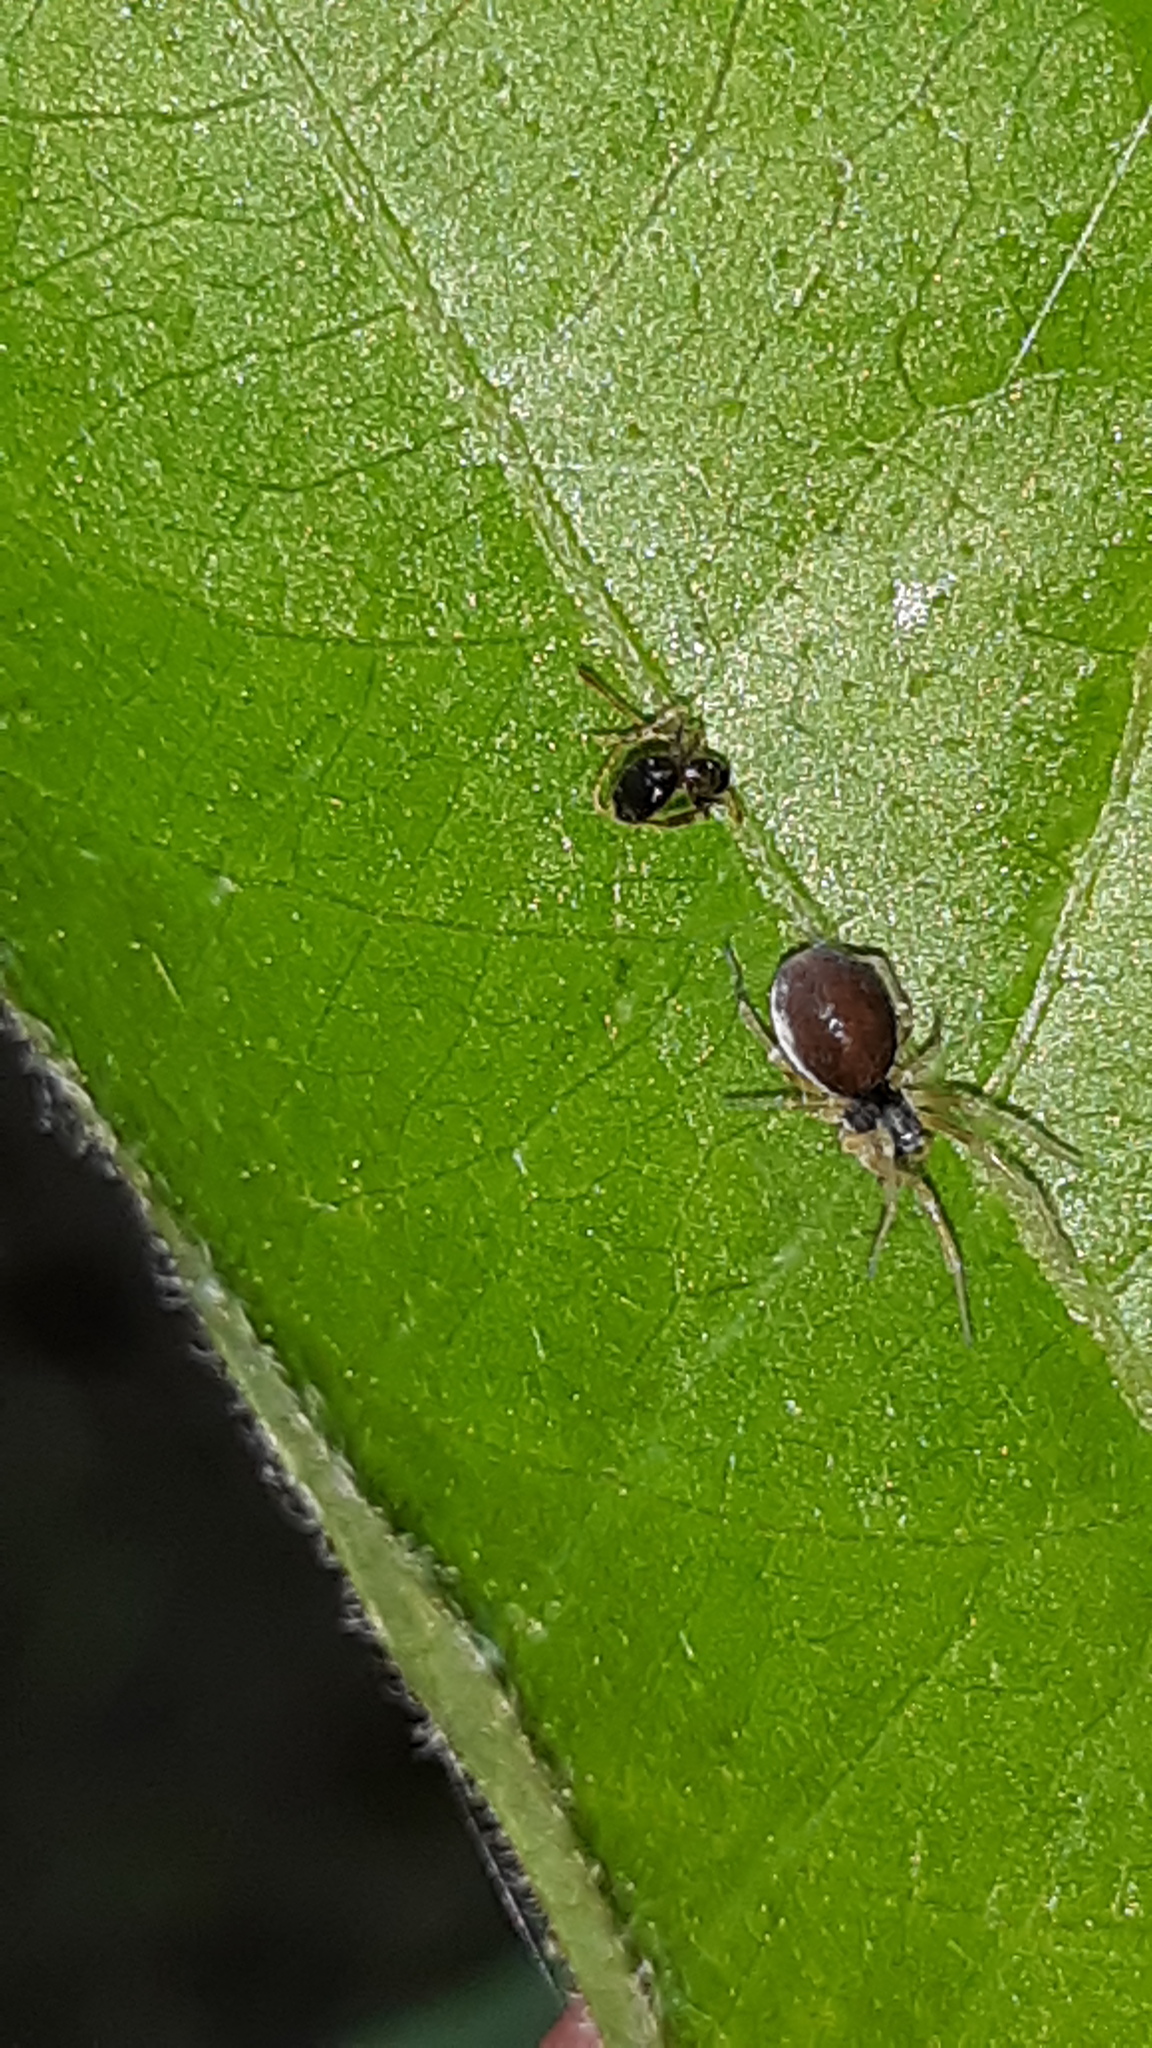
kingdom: Animalia
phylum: Arthropoda
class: Arachnida
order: Araneae
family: Dictynidae
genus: Emblyna
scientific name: Emblyna sublata
